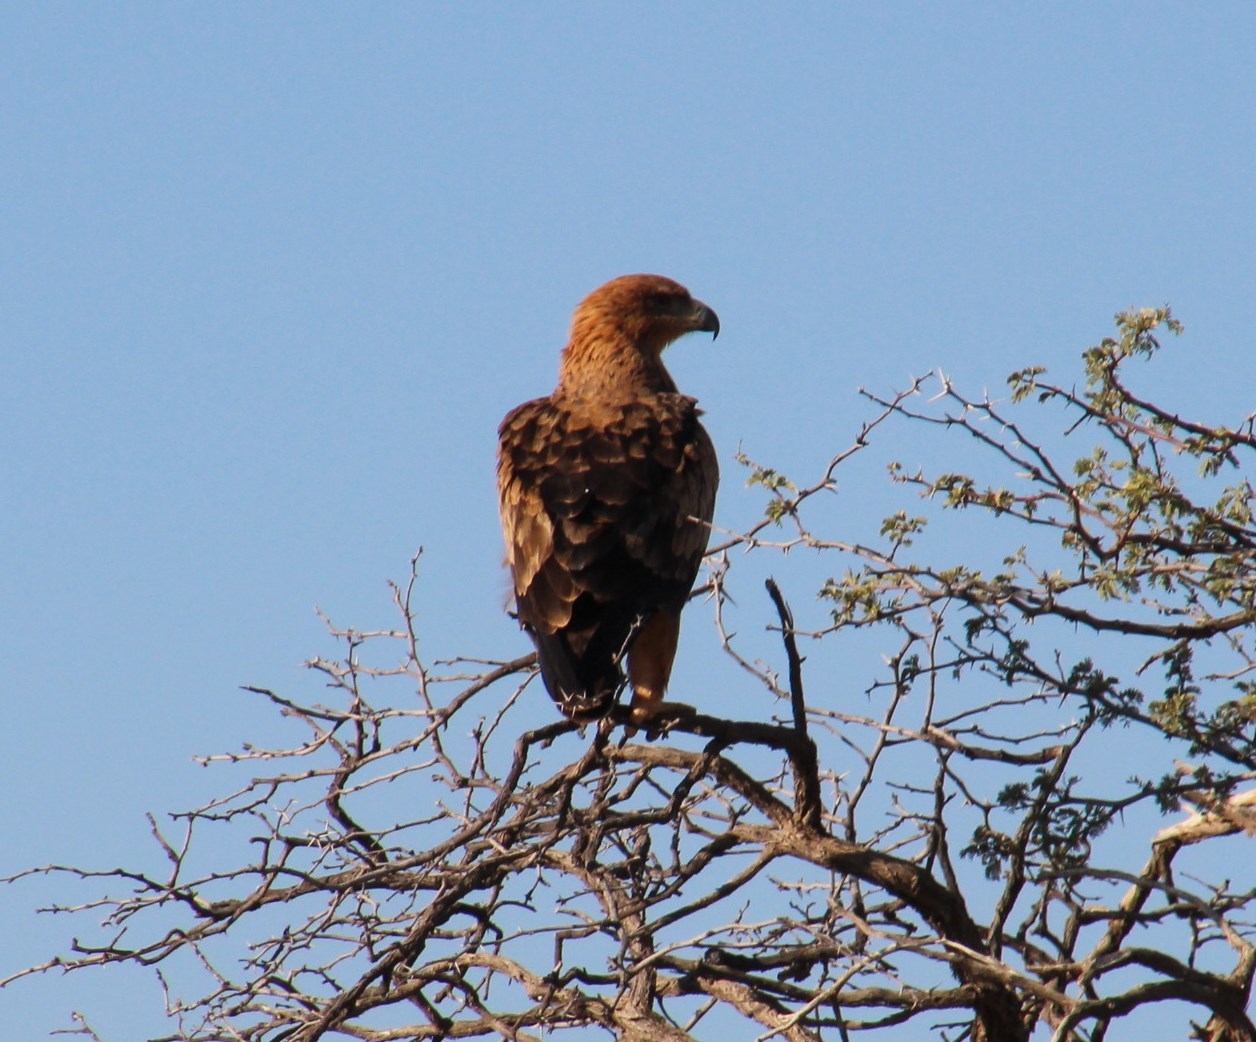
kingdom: Animalia
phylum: Chordata
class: Aves
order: Accipitriformes
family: Accipitridae
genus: Aquila
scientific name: Aquila rapax
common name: Tawny eagle
